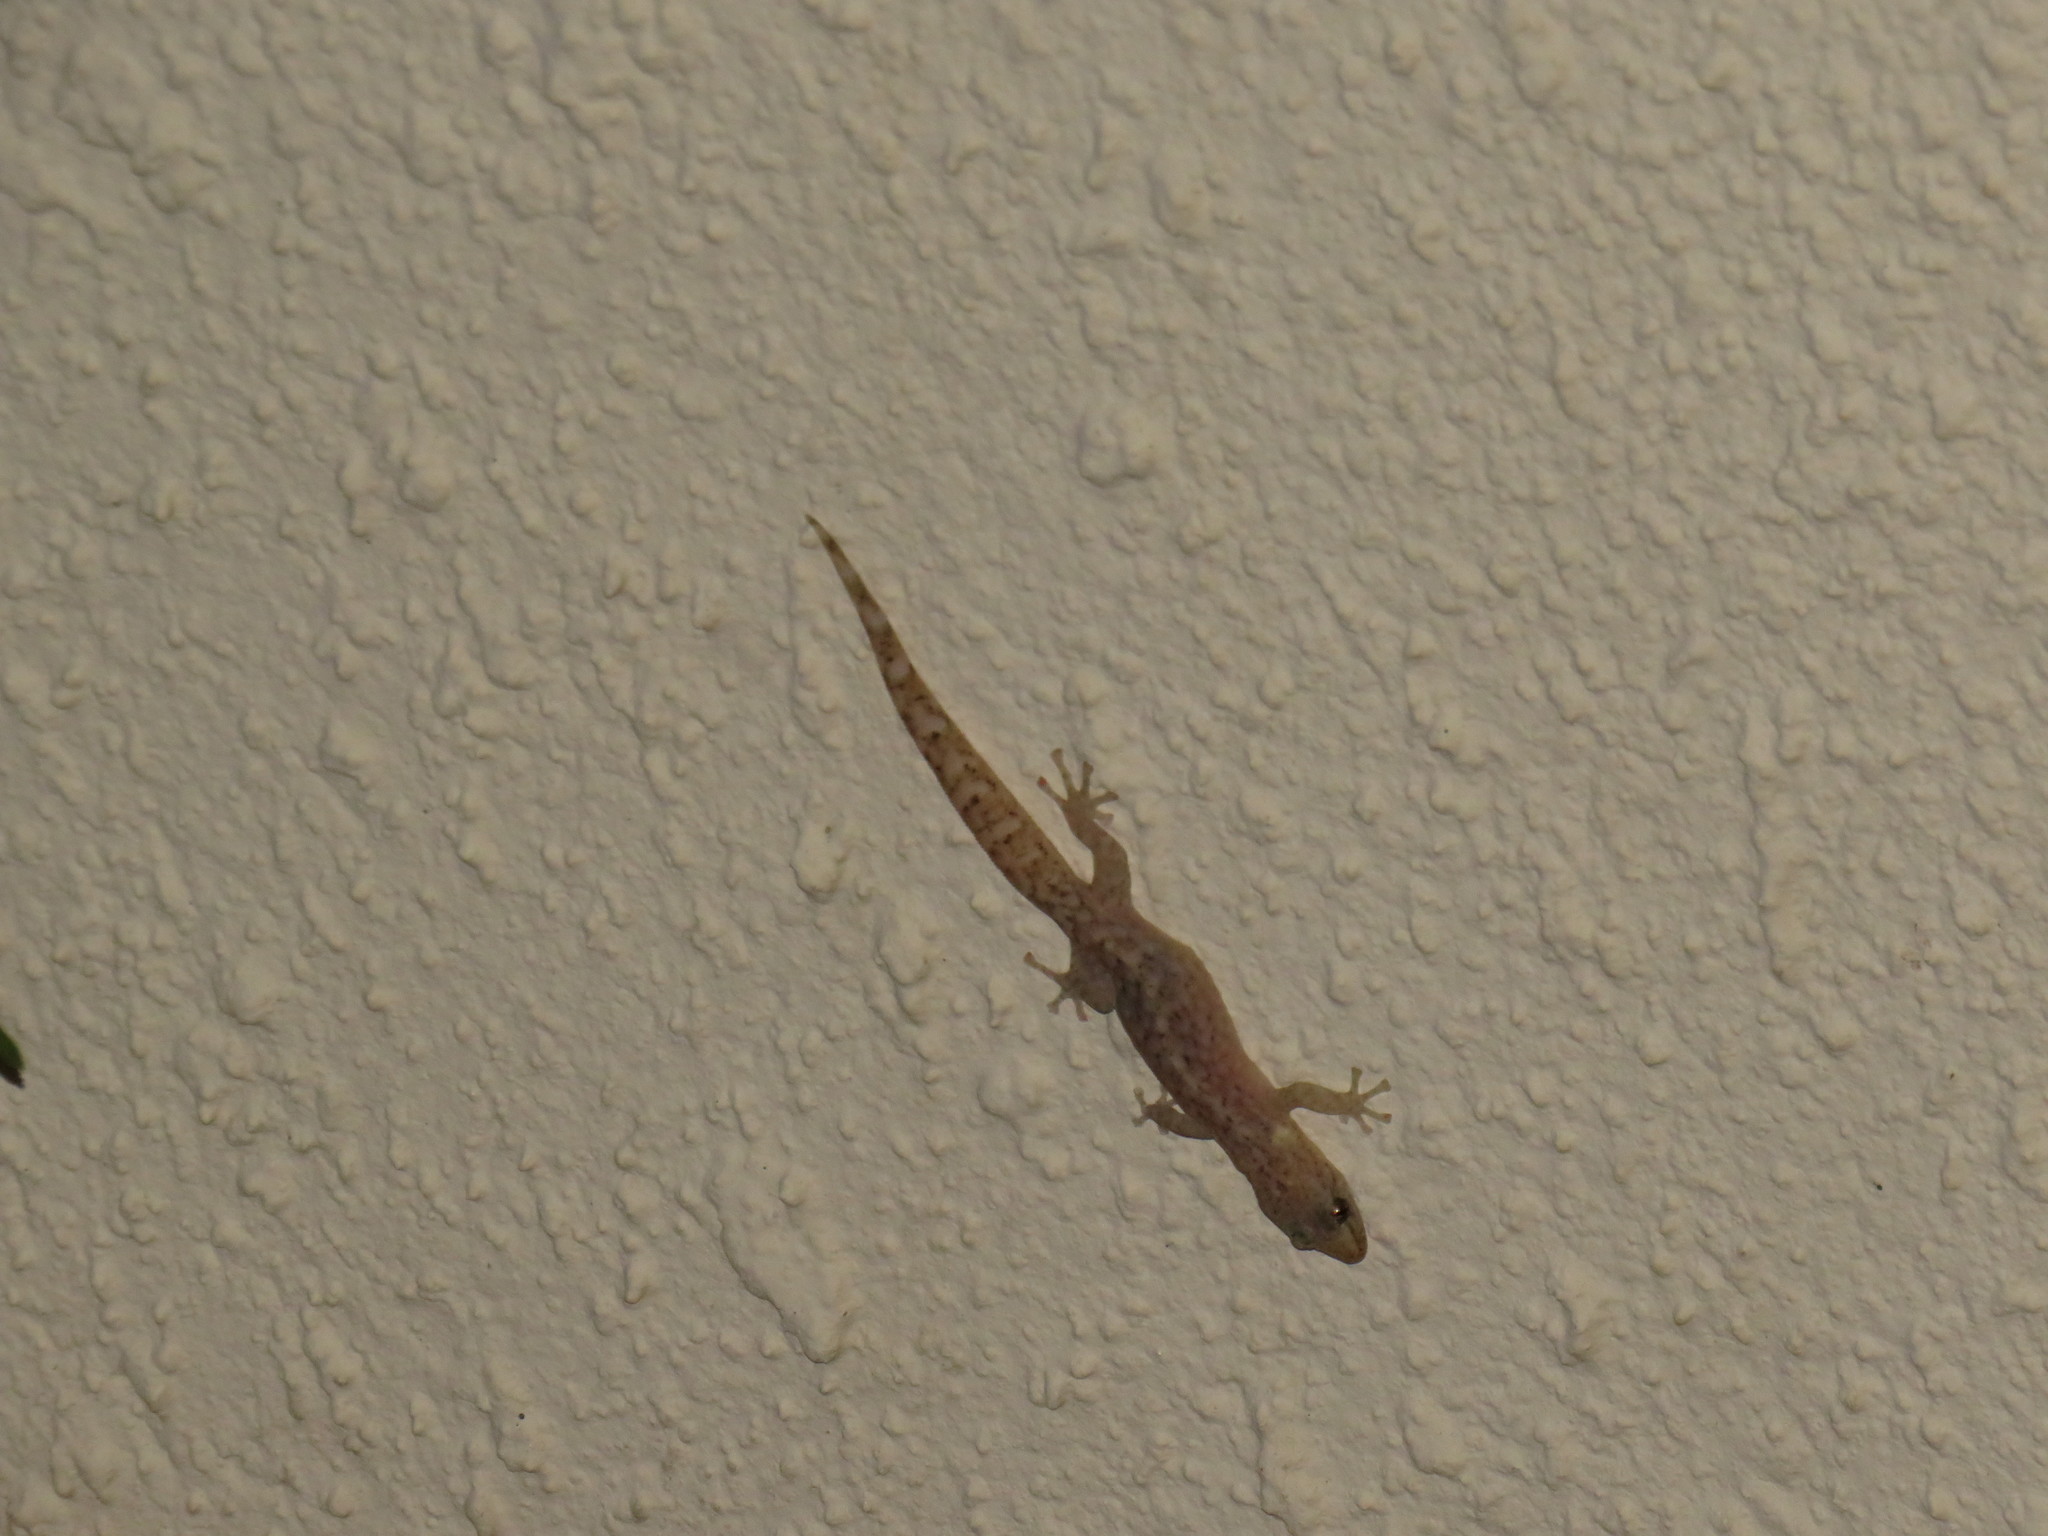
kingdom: Animalia
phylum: Chordata
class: Squamata
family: Gekkonidae
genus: Afrogecko
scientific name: Afrogecko porphyreus
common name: Marbled leaf-toed gecko
